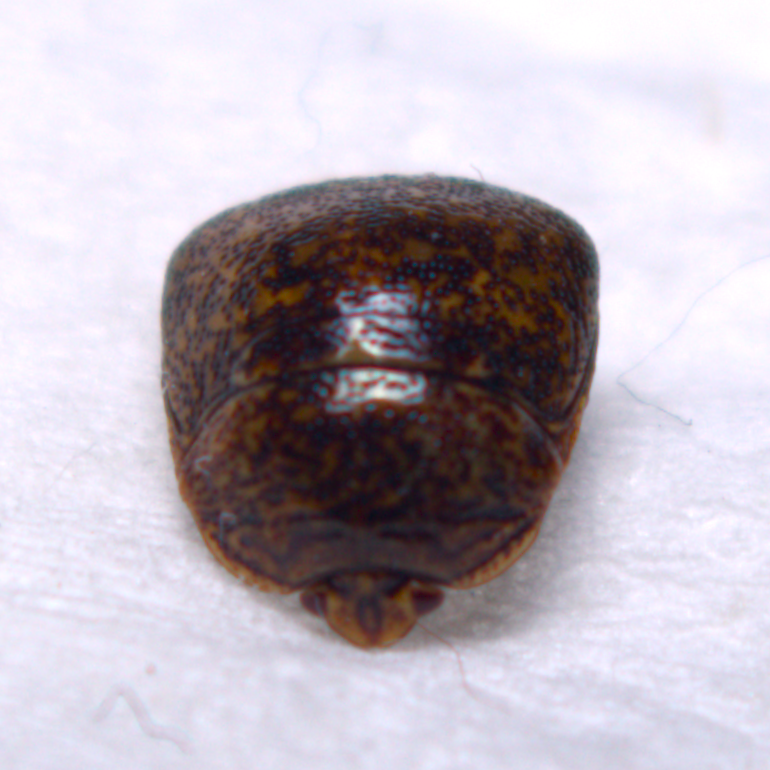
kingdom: Animalia
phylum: Arthropoda
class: Insecta
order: Hemiptera
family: Plataspidae
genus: Megacopta
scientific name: Megacopta cribraria
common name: Bean plataspid
